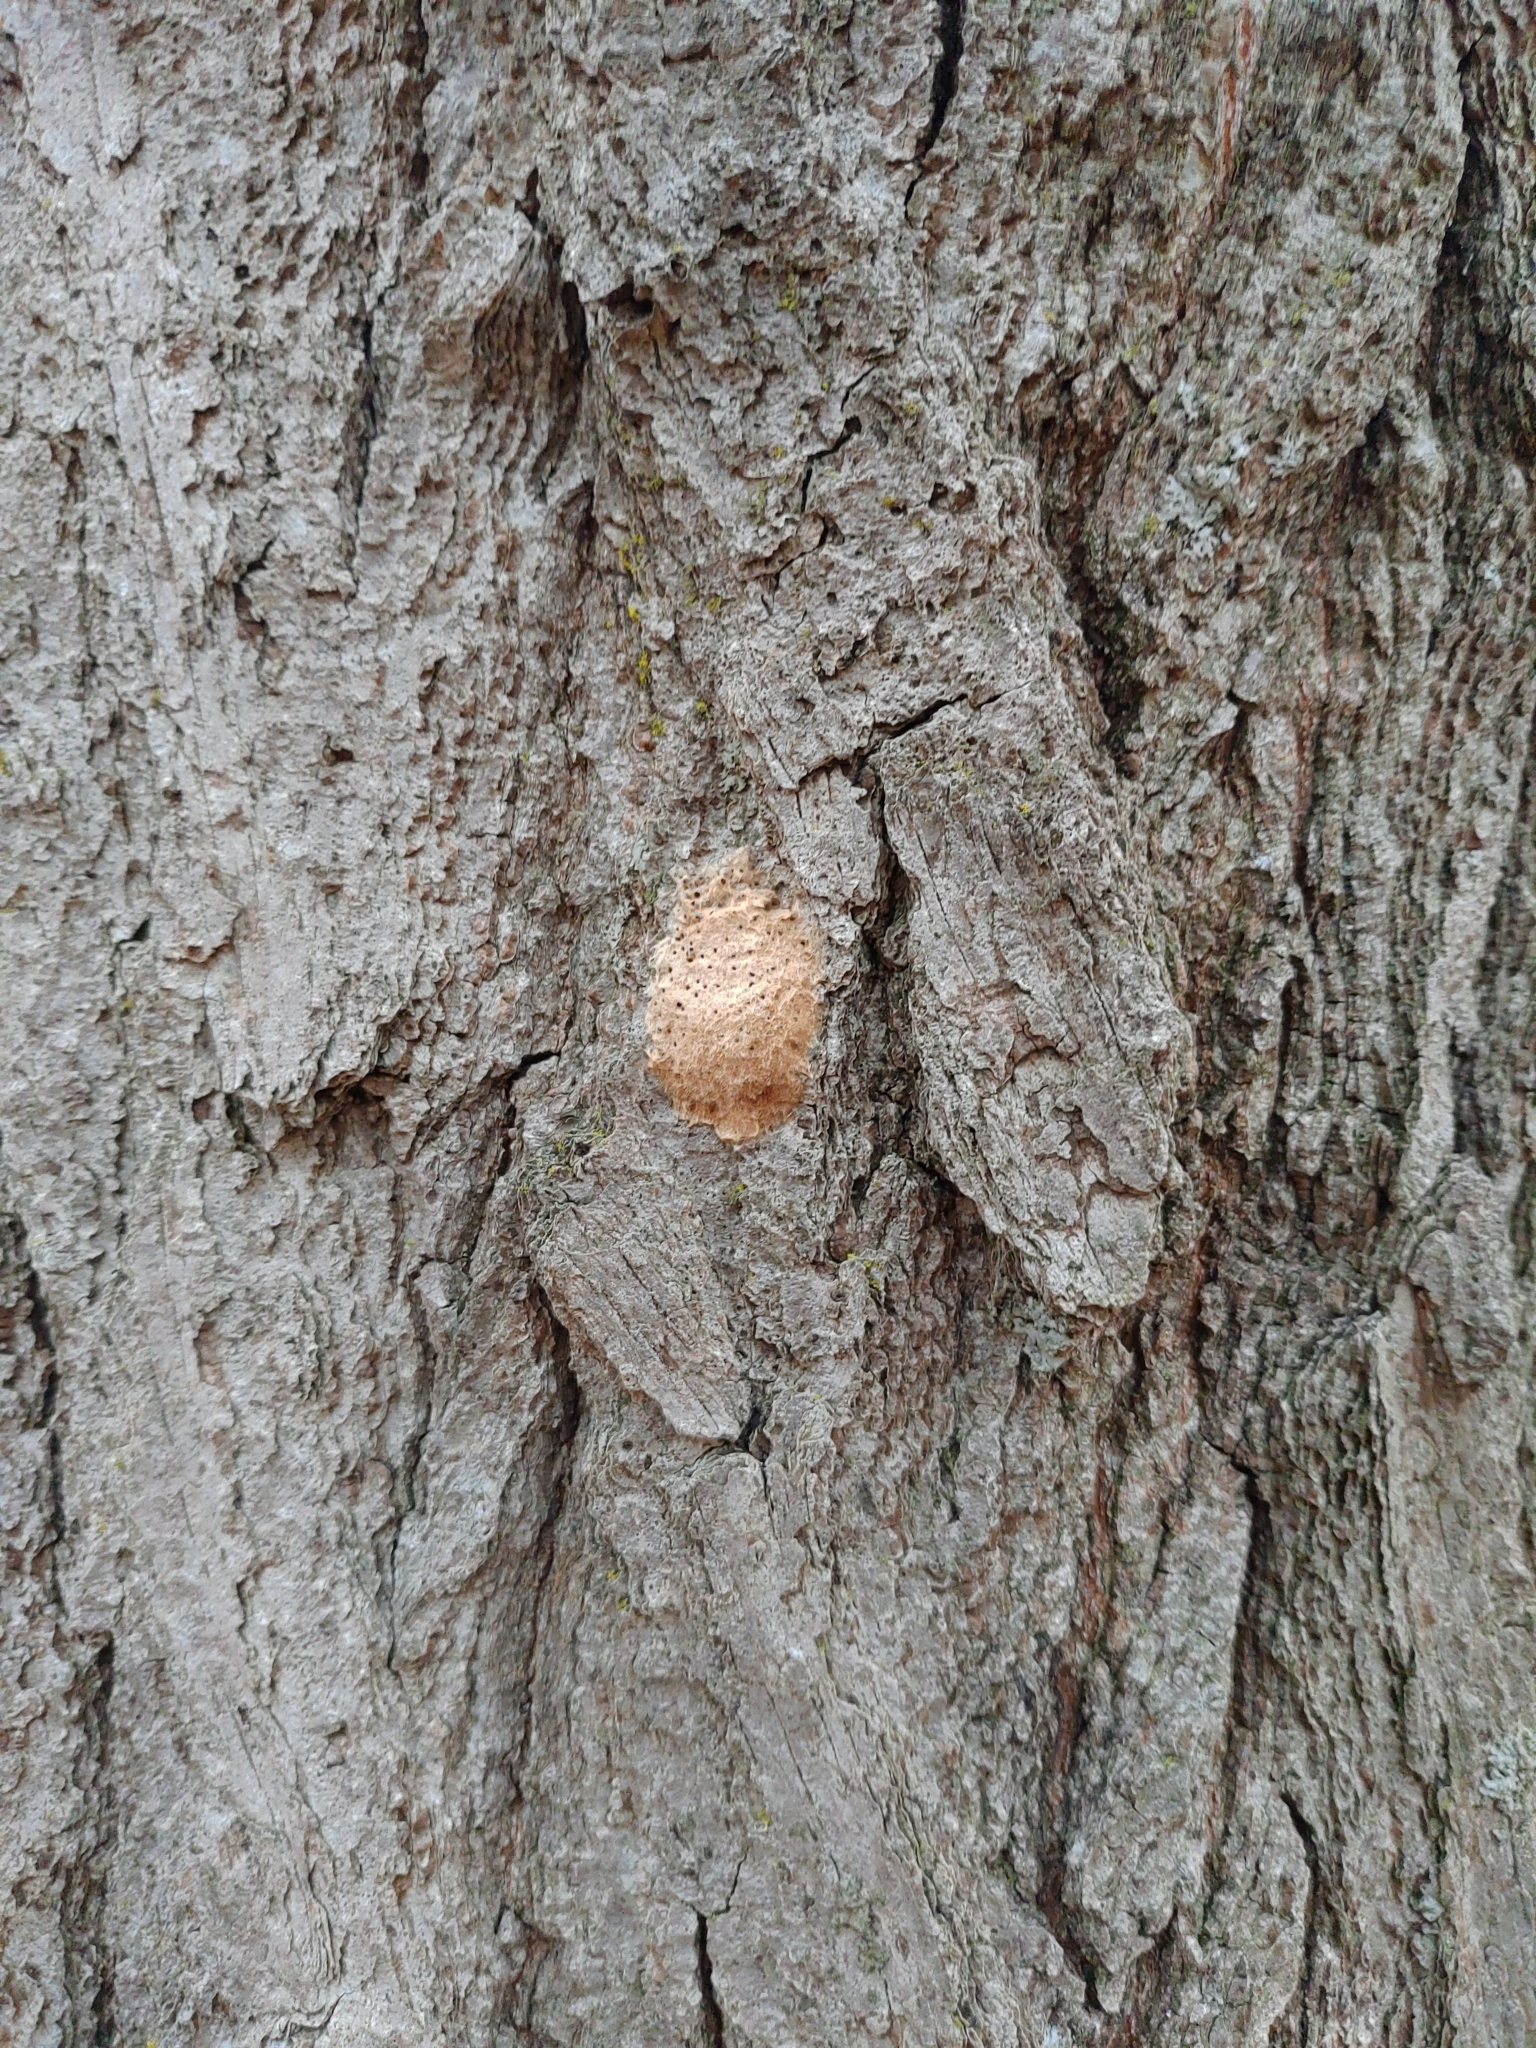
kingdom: Animalia
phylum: Arthropoda
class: Insecta
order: Lepidoptera
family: Erebidae
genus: Lymantria
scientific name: Lymantria dispar
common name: Gypsy moth
